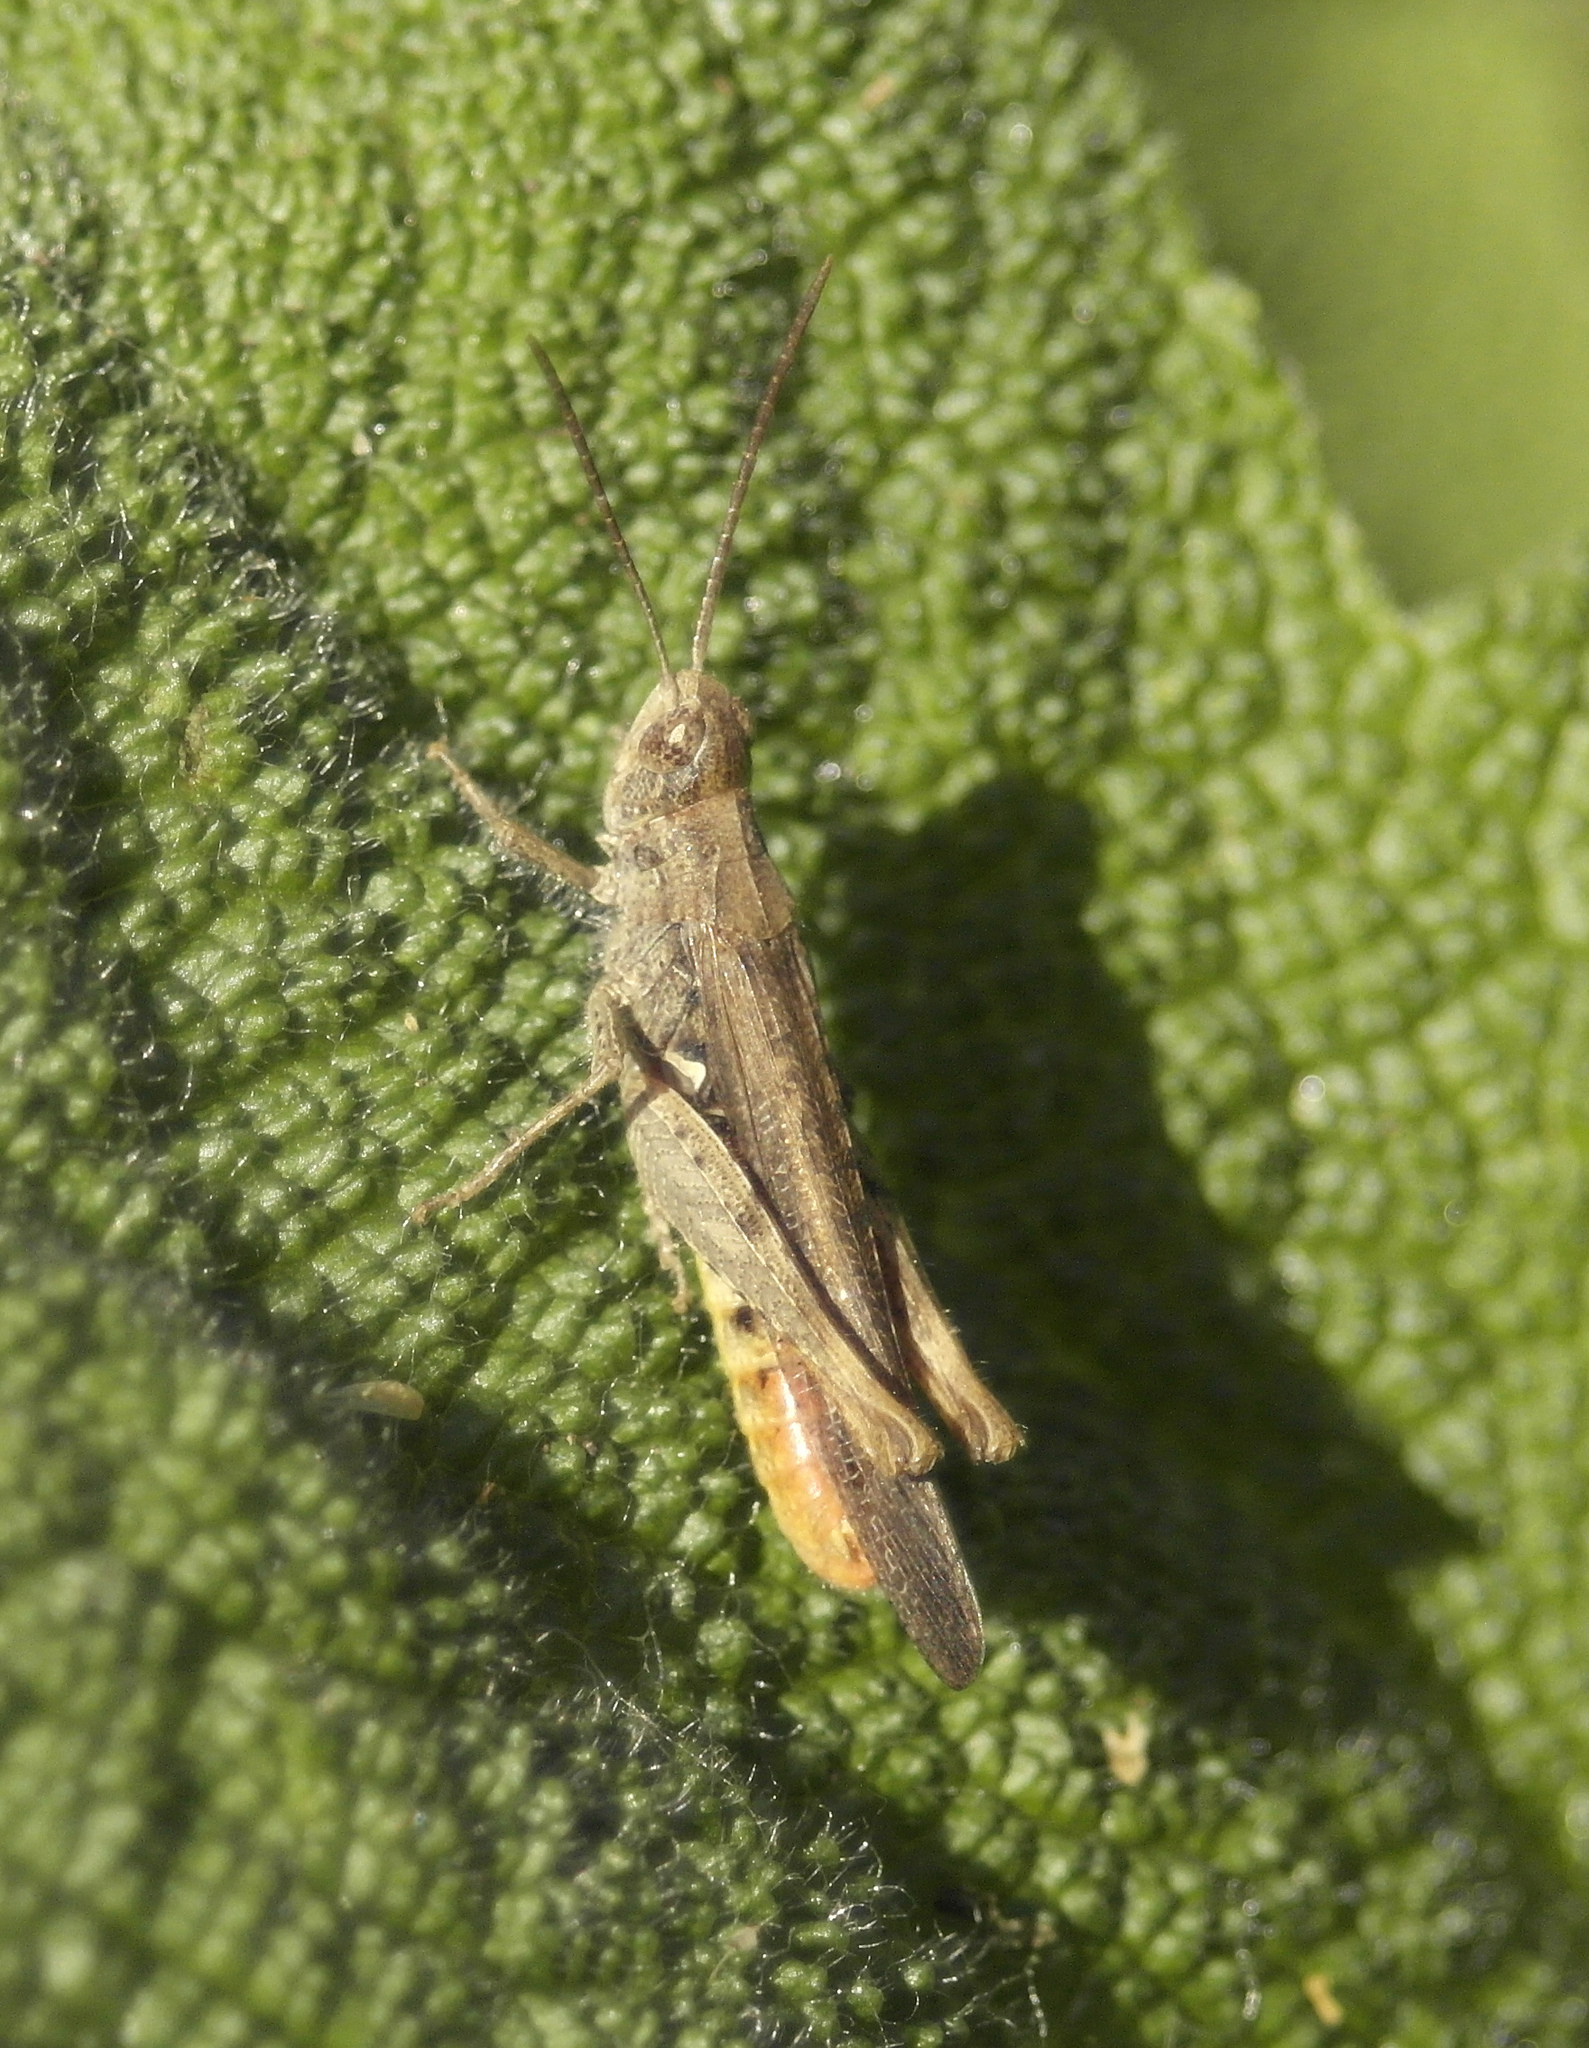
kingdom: Animalia
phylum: Arthropoda
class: Insecta
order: Orthoptera
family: Acrididae
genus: Chorthippus
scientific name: Chorthippus brunneus
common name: Field grasshopper
